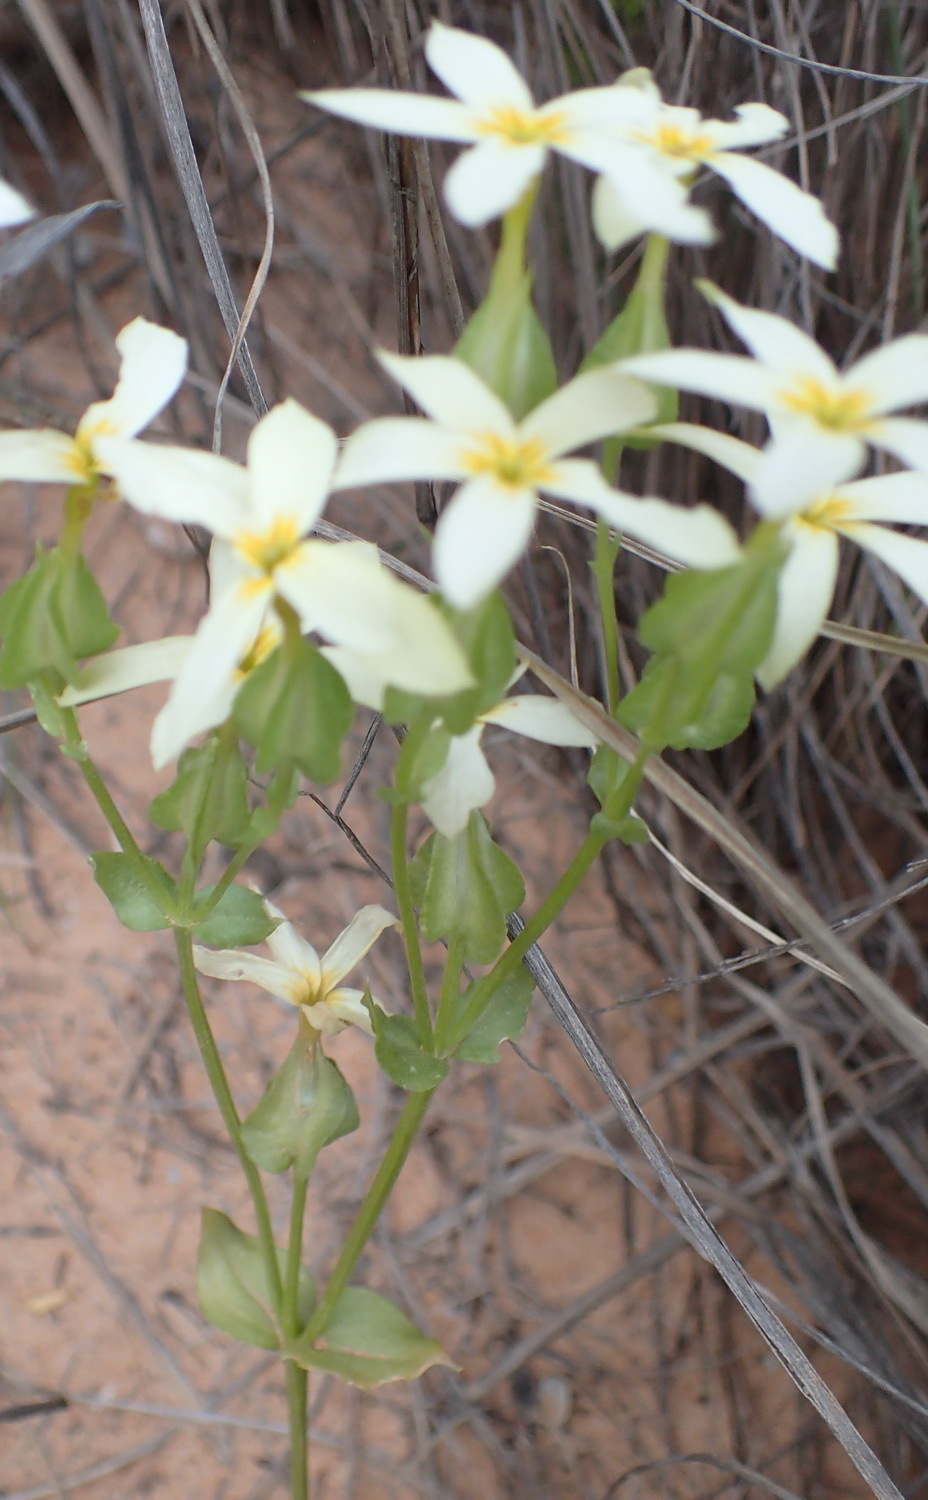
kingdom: Plantae
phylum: Tracheophyta
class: Magnoliopsida
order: Gentianales
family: Gentianaceae
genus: Sebaea
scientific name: Sebaea exacoides
